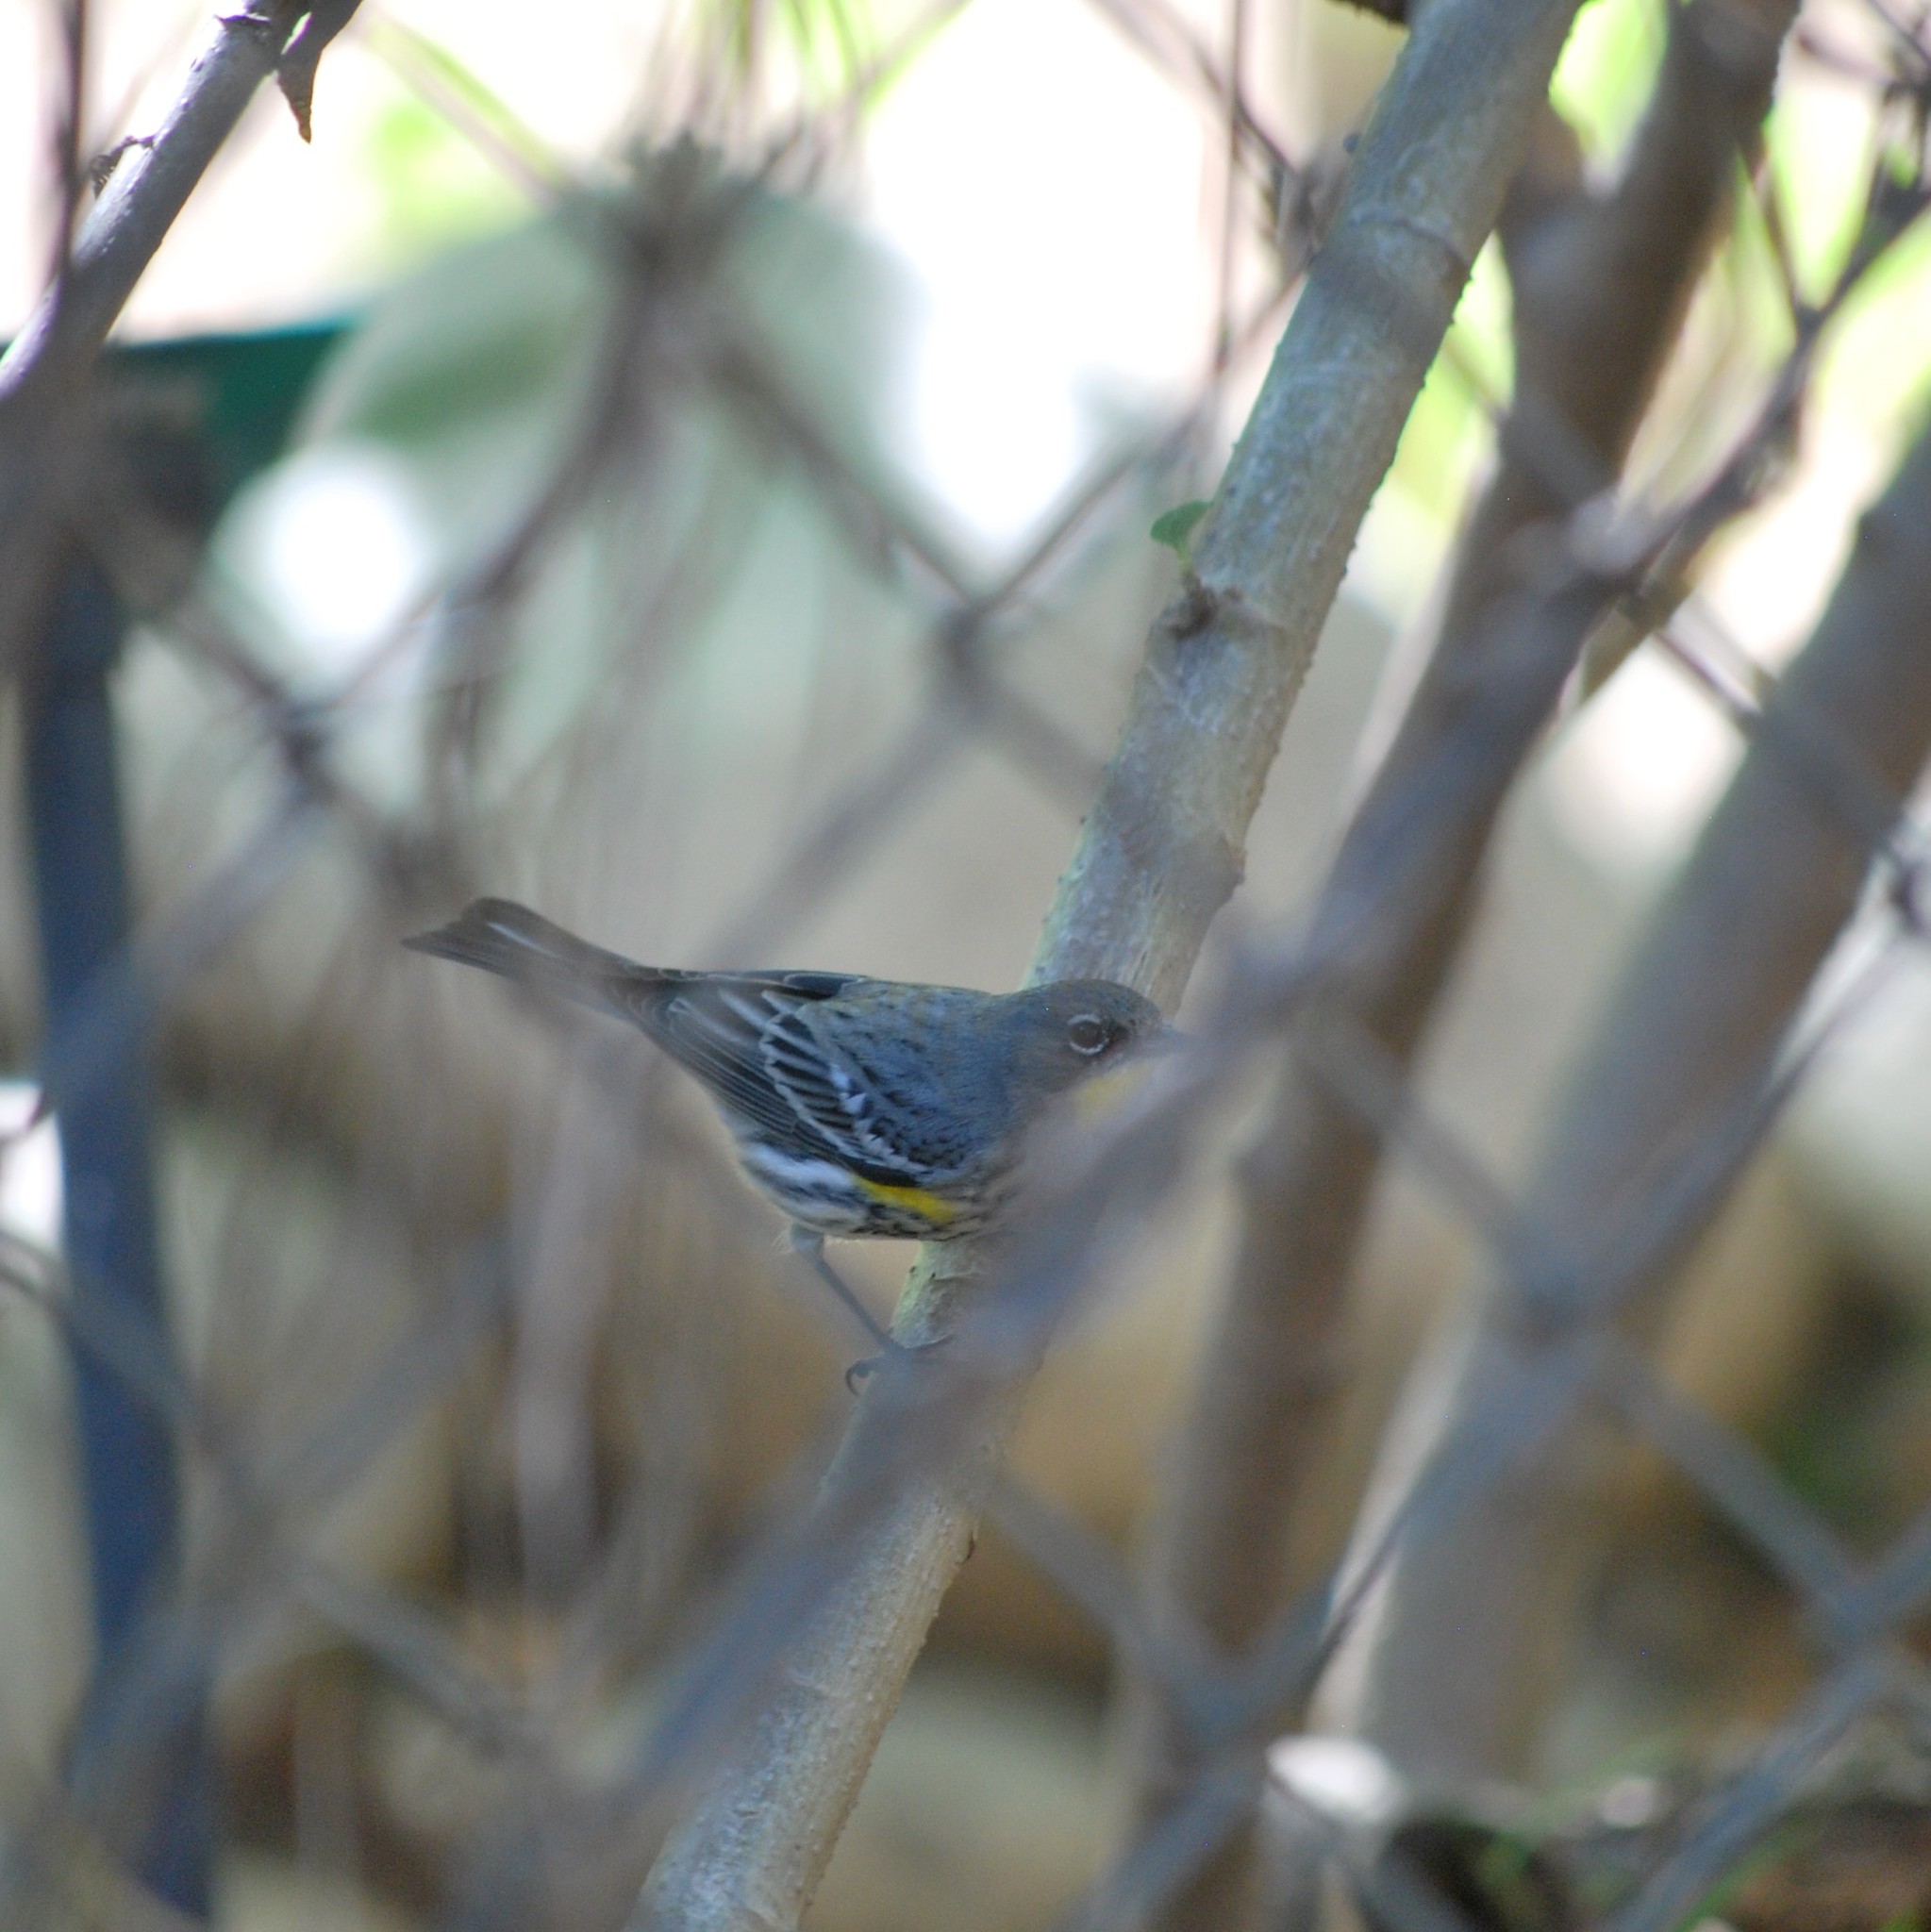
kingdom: Animalia
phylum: Chordata
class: Aves
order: Passeriformes
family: Parulidae
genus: Setophaga
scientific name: Setophaga auduboni
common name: Audubon's warbler
